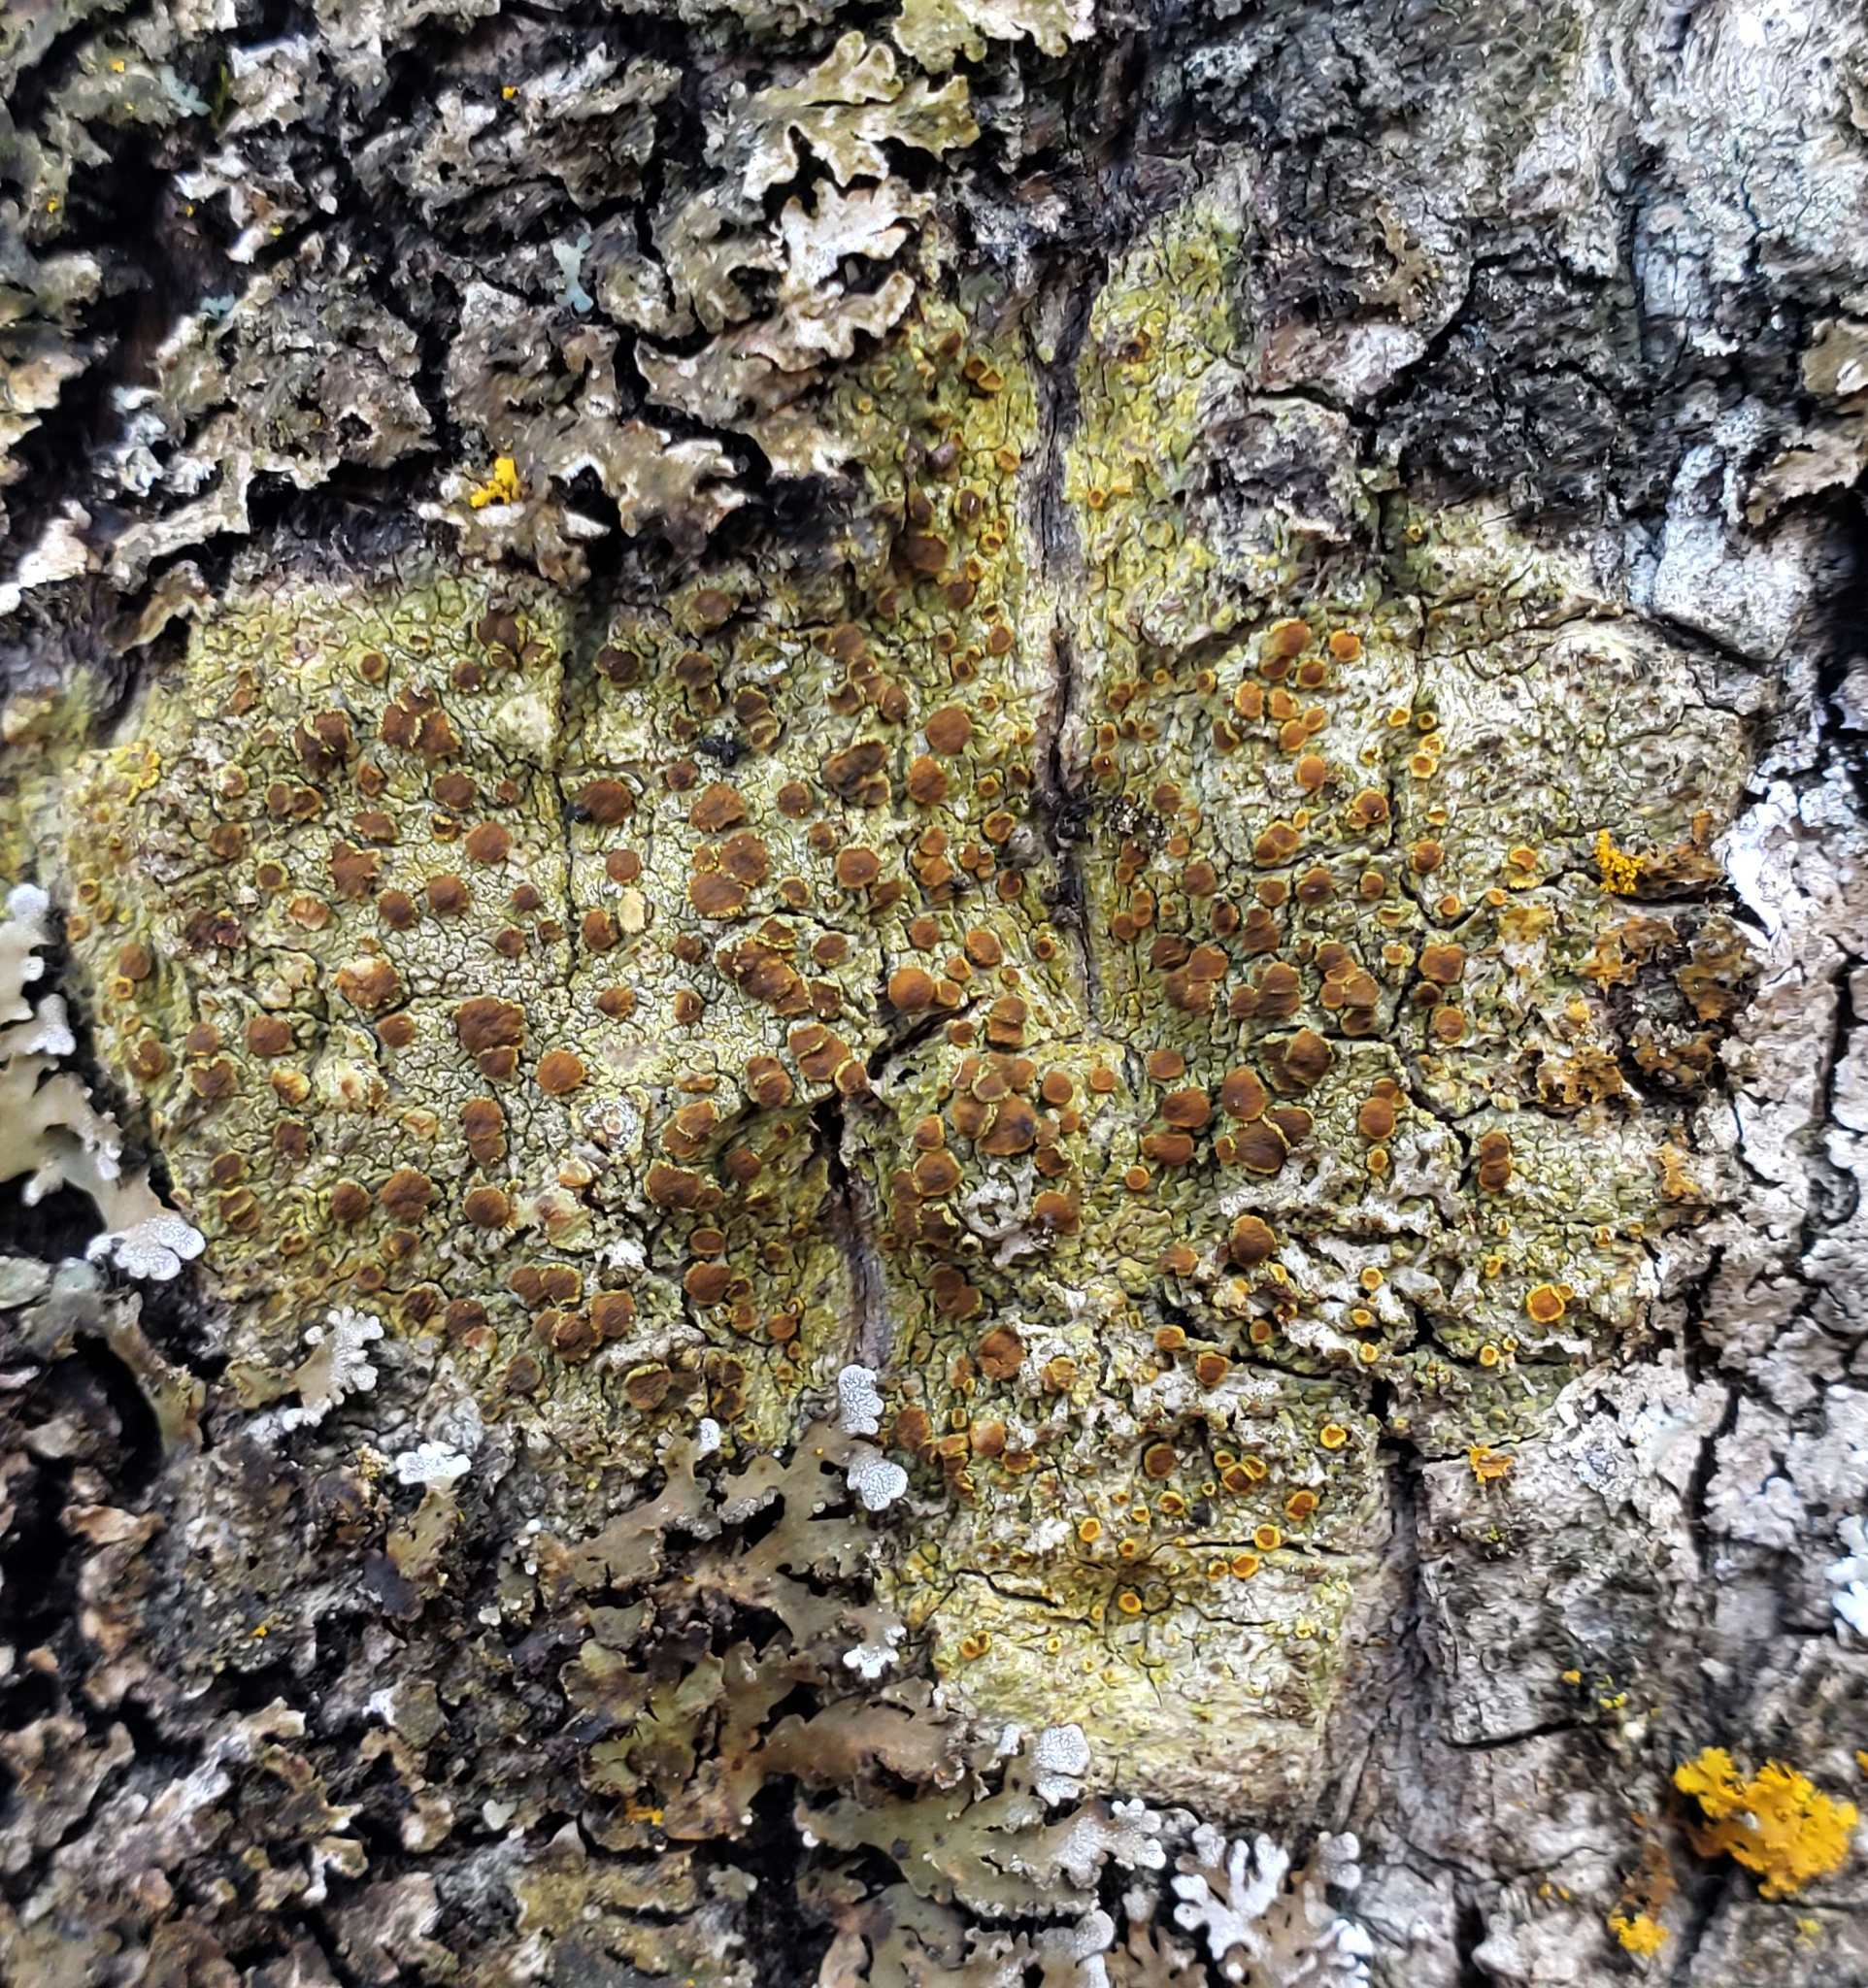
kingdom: Fungi
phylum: Ascomycota
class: Lecanoromycetes
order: Teloschistales
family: Teloschistaceae
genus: Opeltia
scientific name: Opeltia flavorubescens
